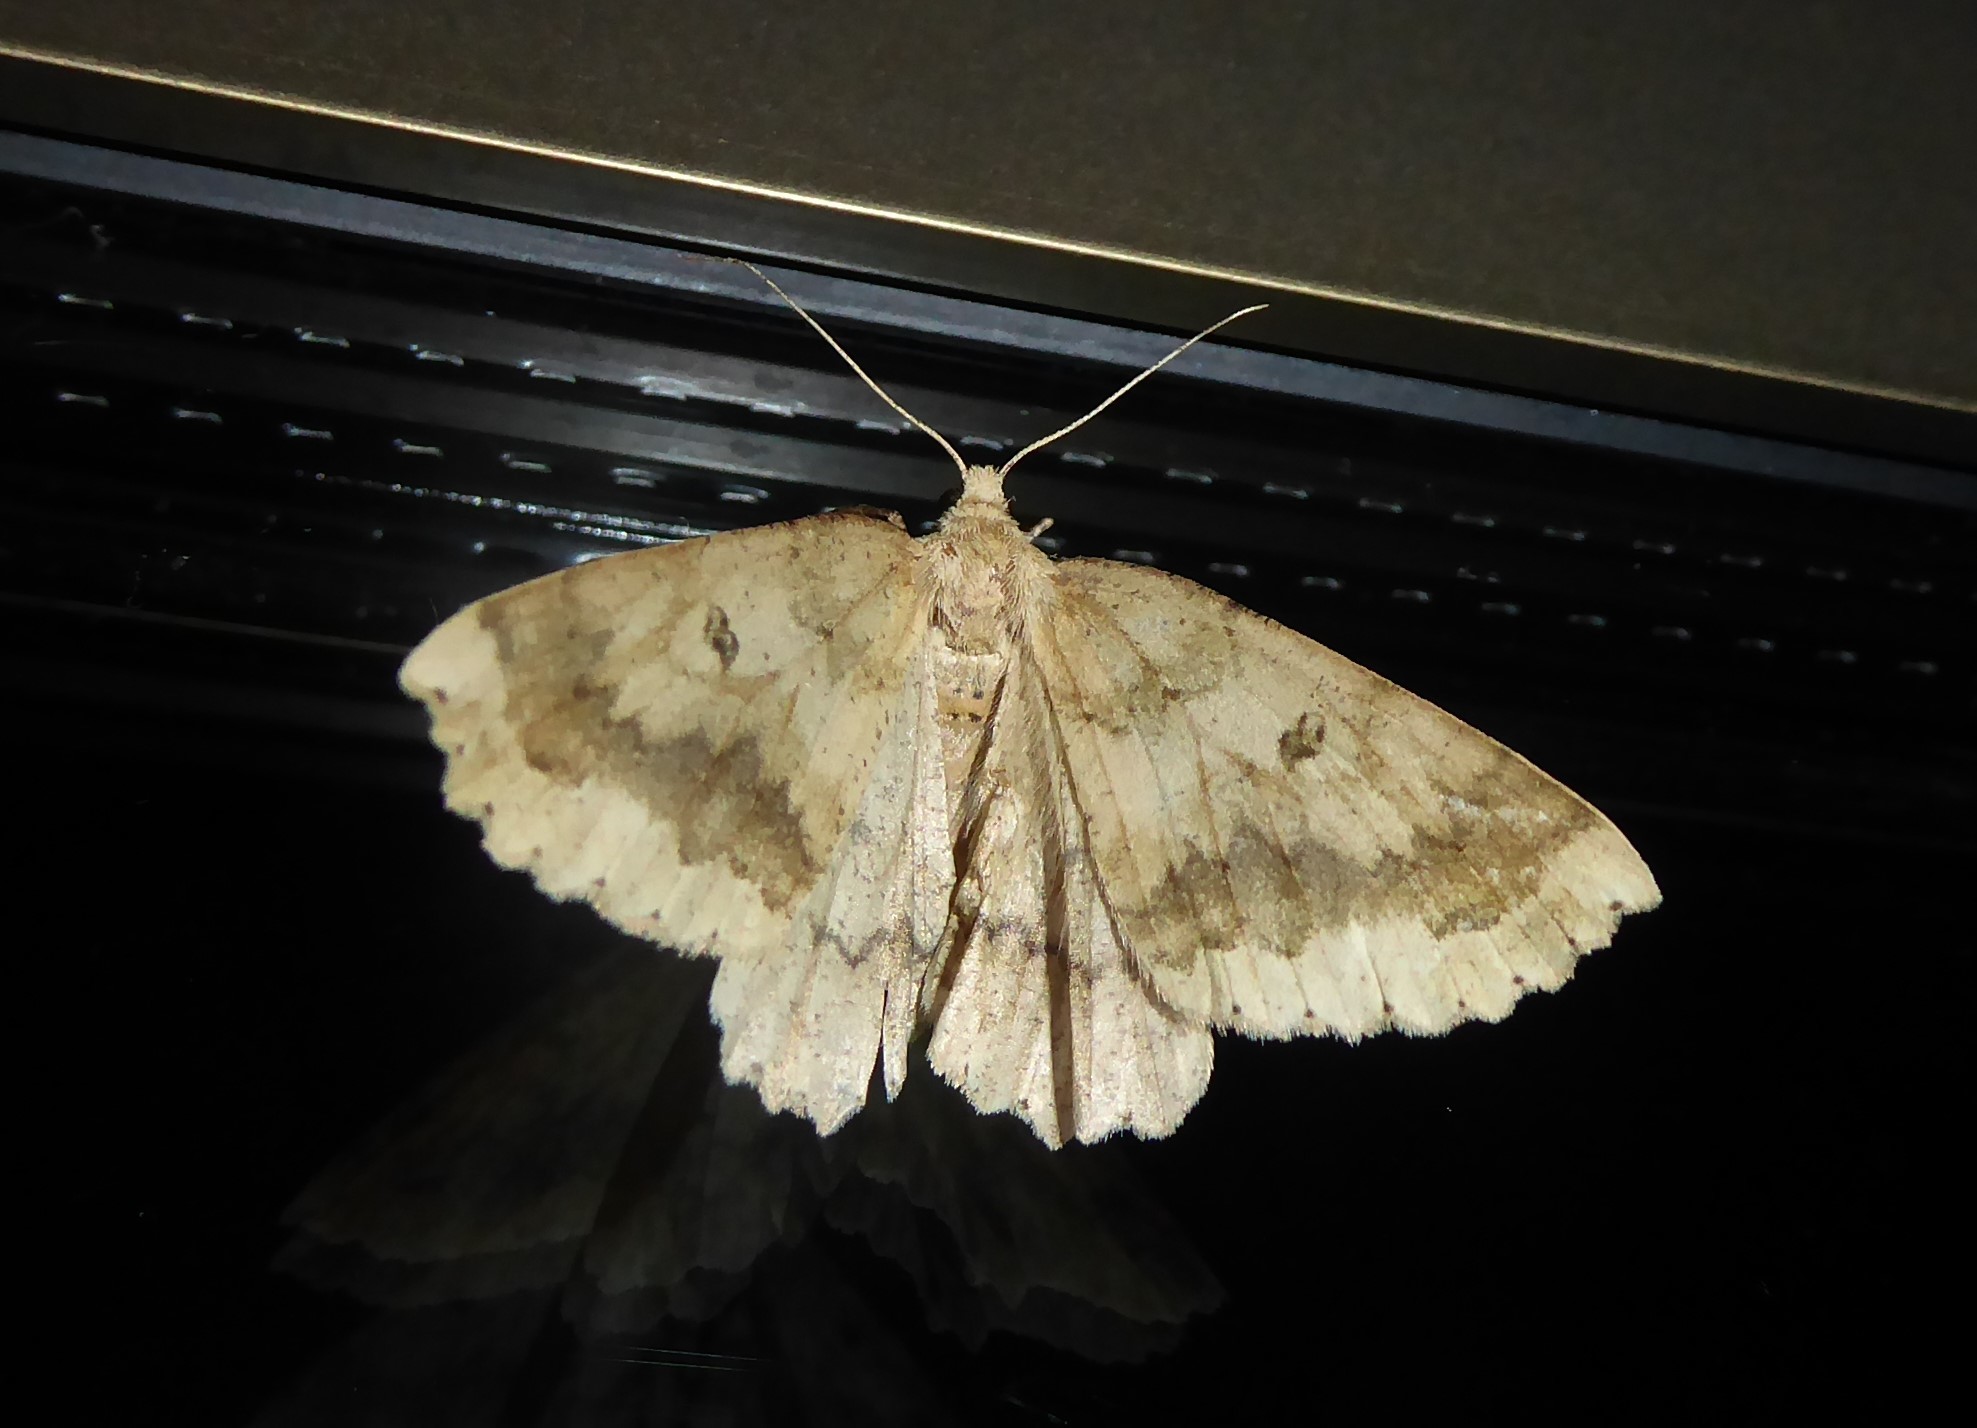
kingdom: Animalia
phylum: Arthropoda
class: Insecta
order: Lepidoptera
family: Geometridae
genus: Cleora
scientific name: Cleora scriptaria
